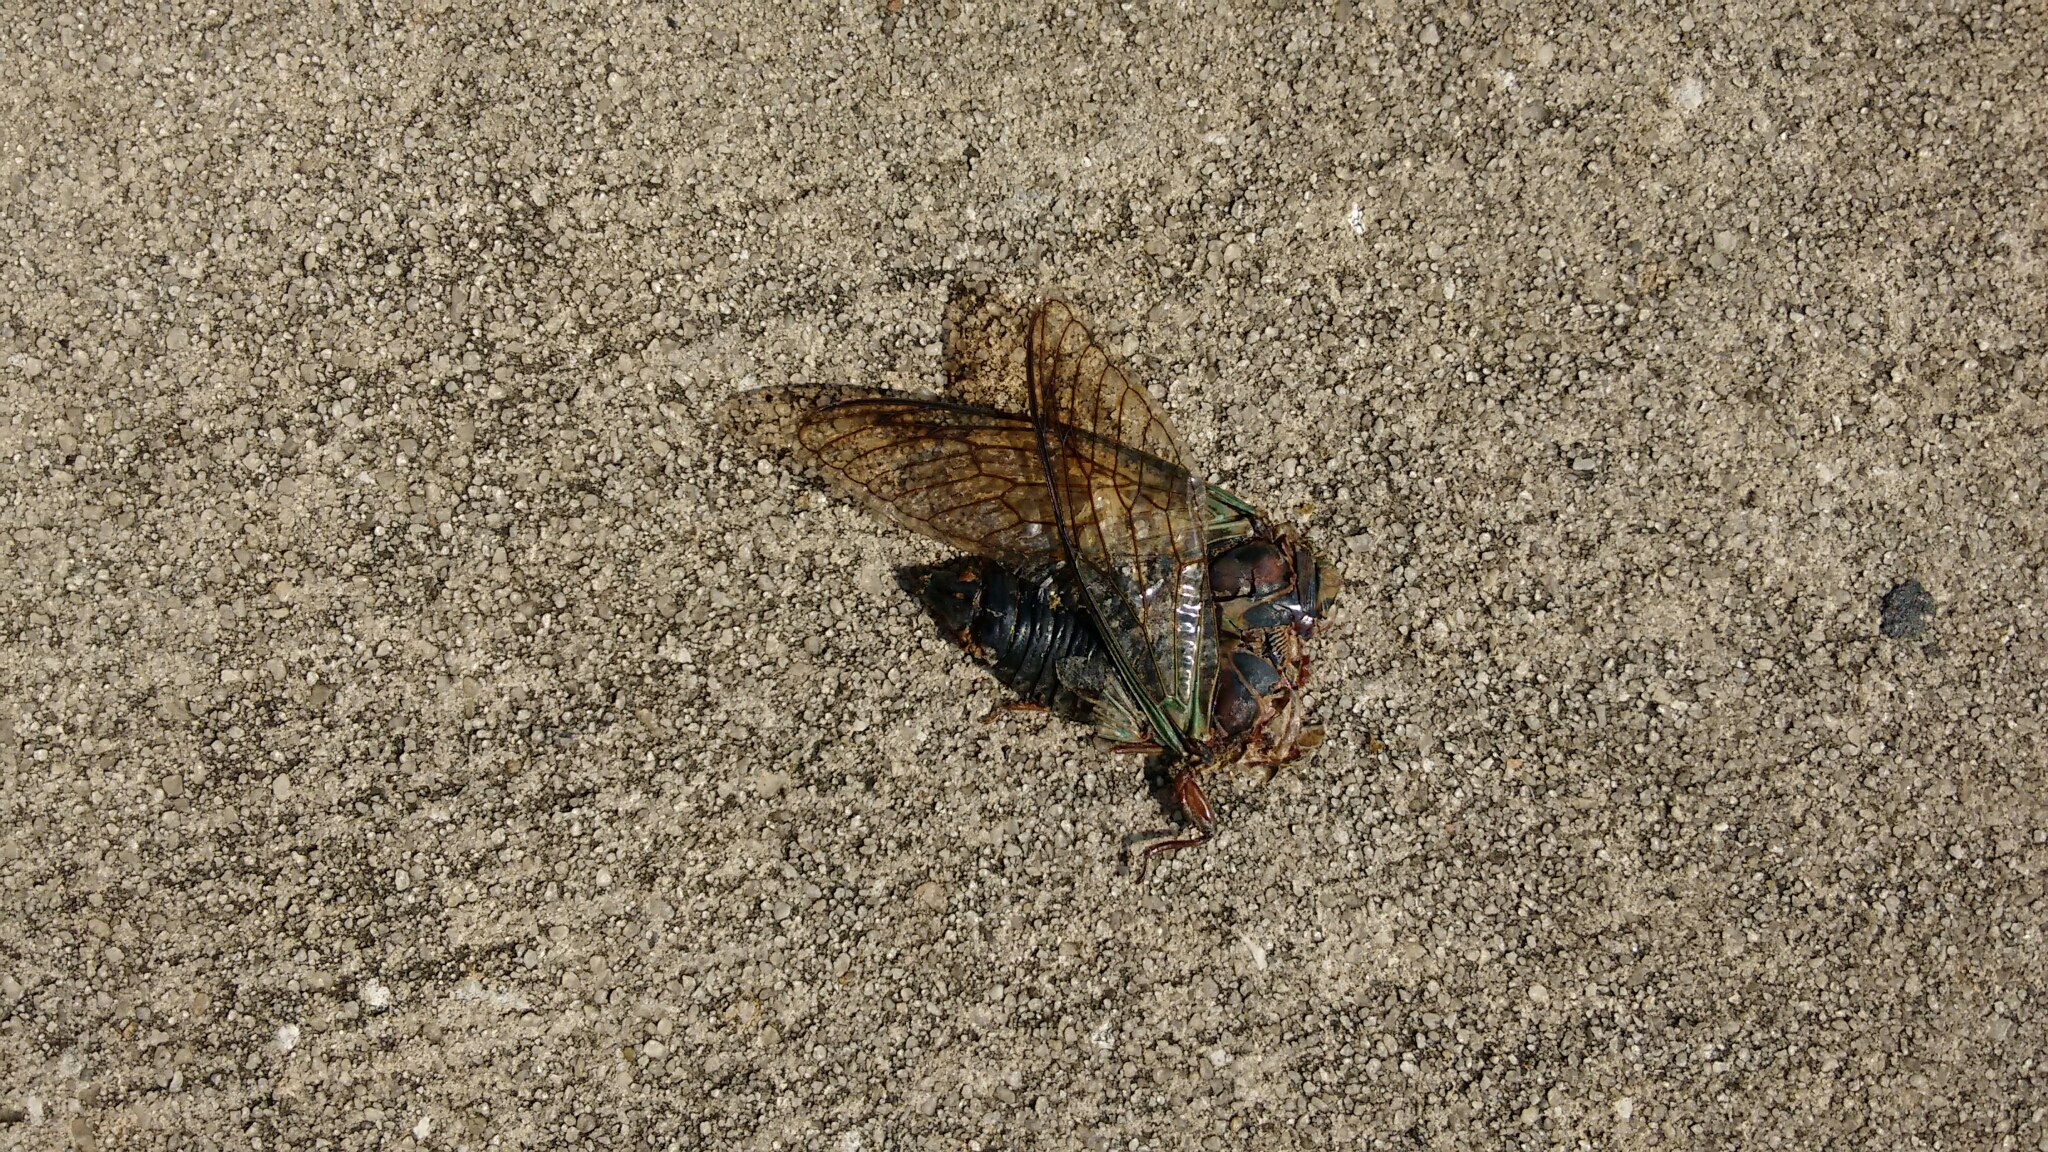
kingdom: Animalia
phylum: Arthropoda
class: Insecta
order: Hemiptera
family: Cicadidae
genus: Neotibicen
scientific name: Neotibicen lyricen
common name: Lyric cicada
